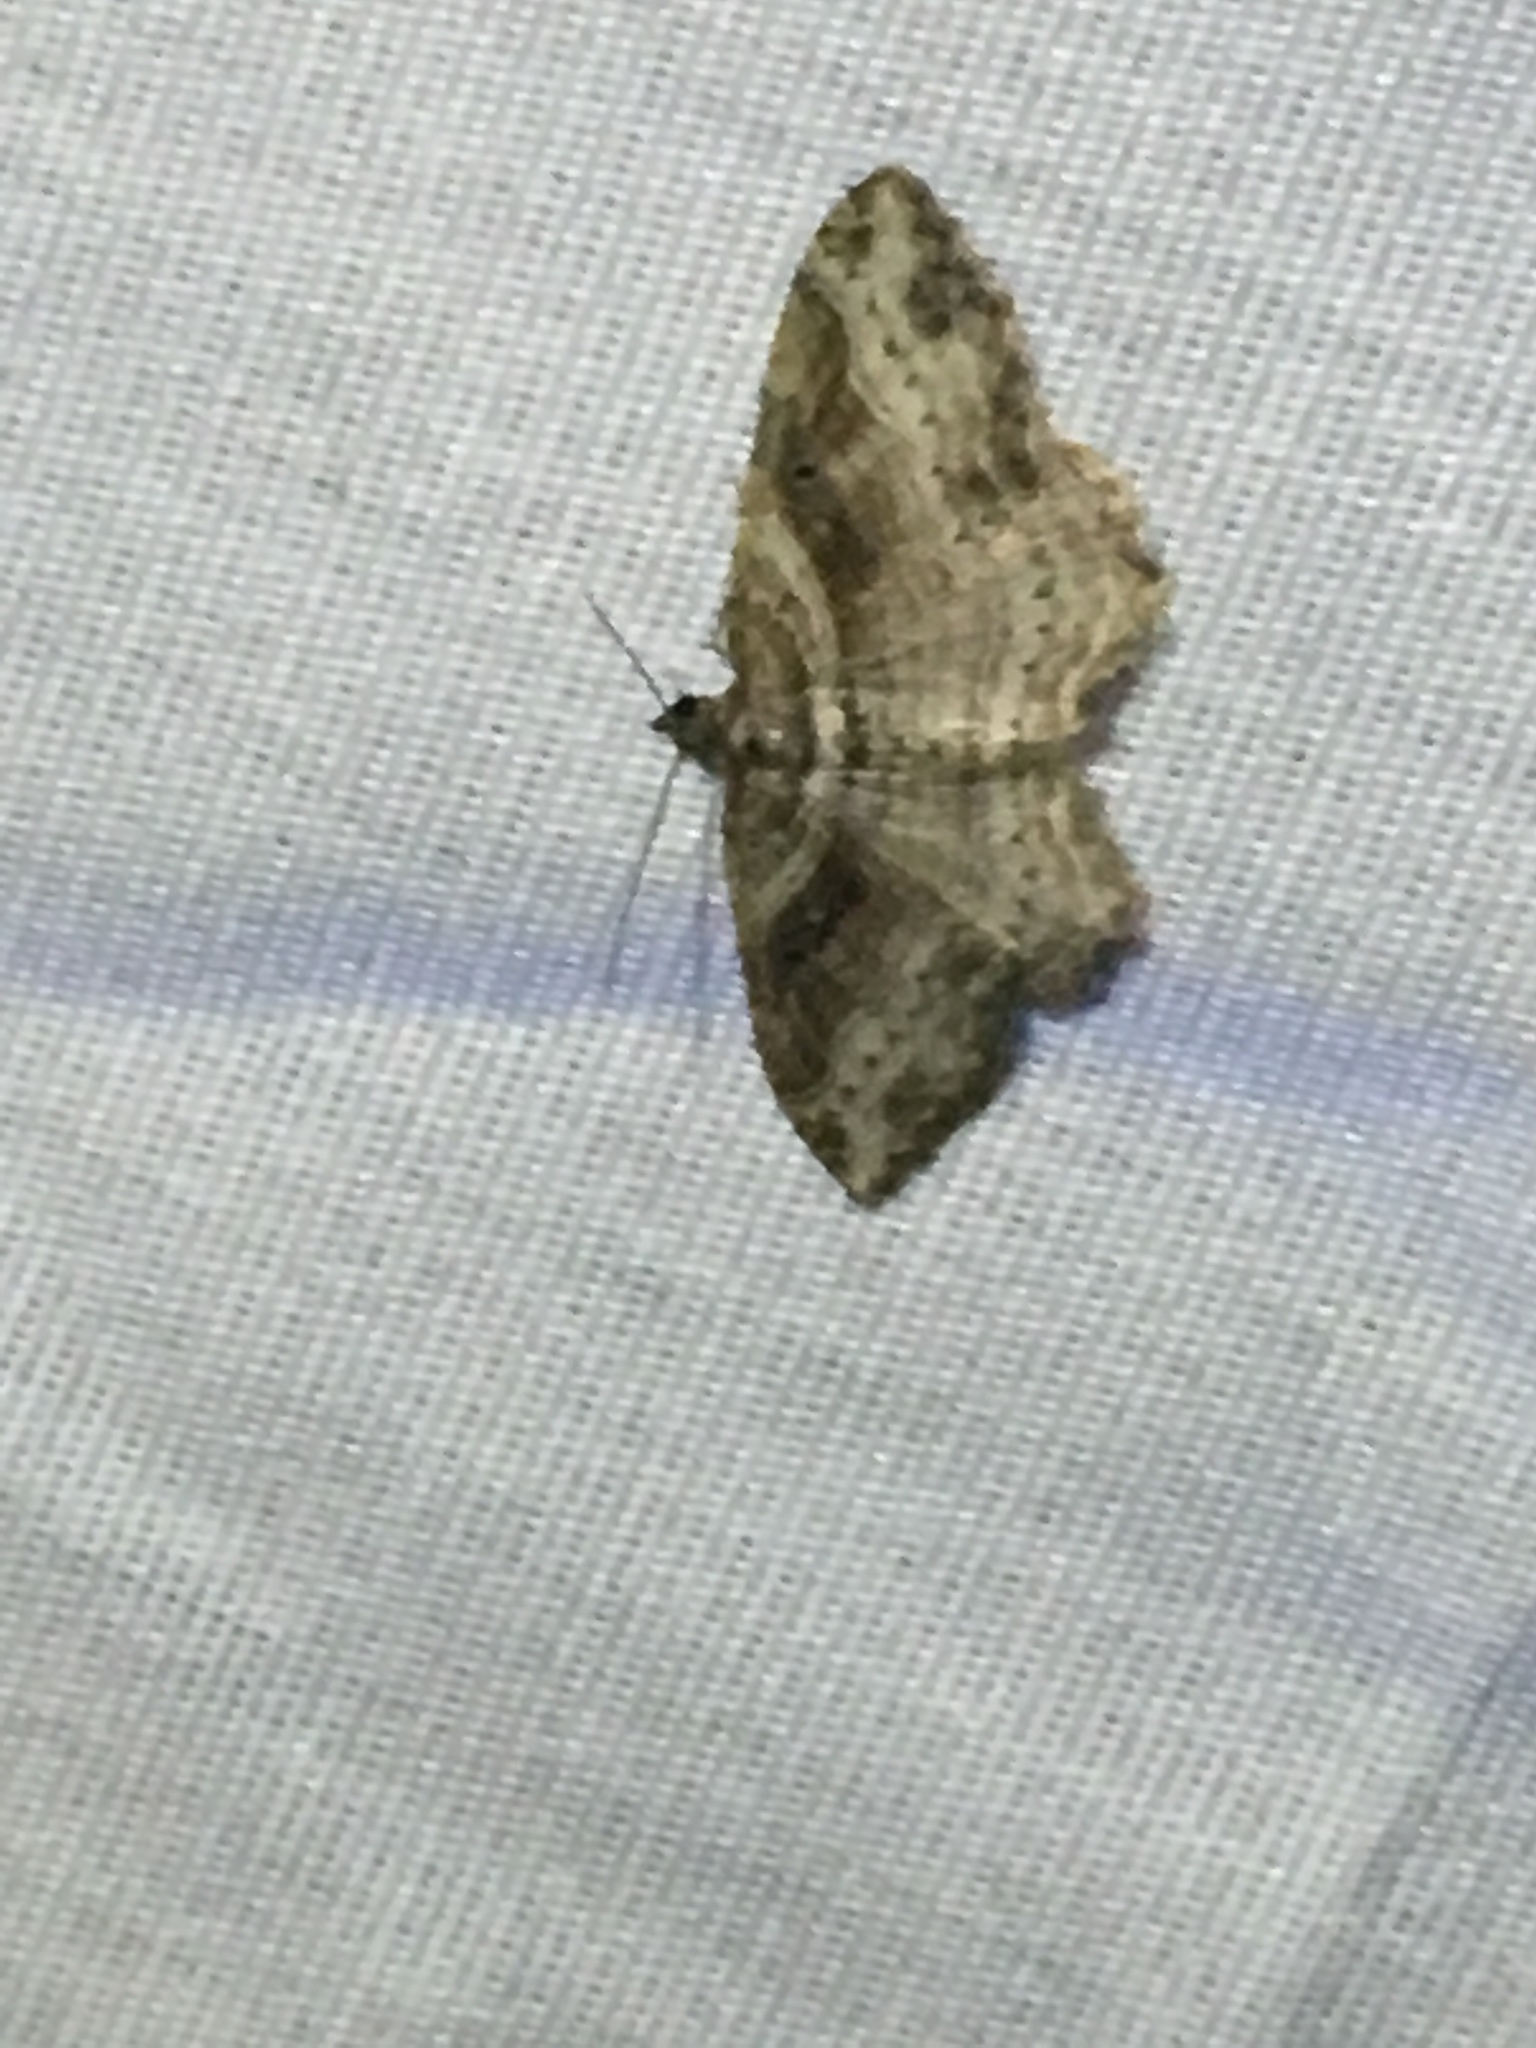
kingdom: Animalia
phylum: Arthropoda
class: Insecta
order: Lepidoptera
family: Geometridae
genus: Costaconvexa
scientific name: Costaconvexa centrostrigaria
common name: Bent-line carpet
